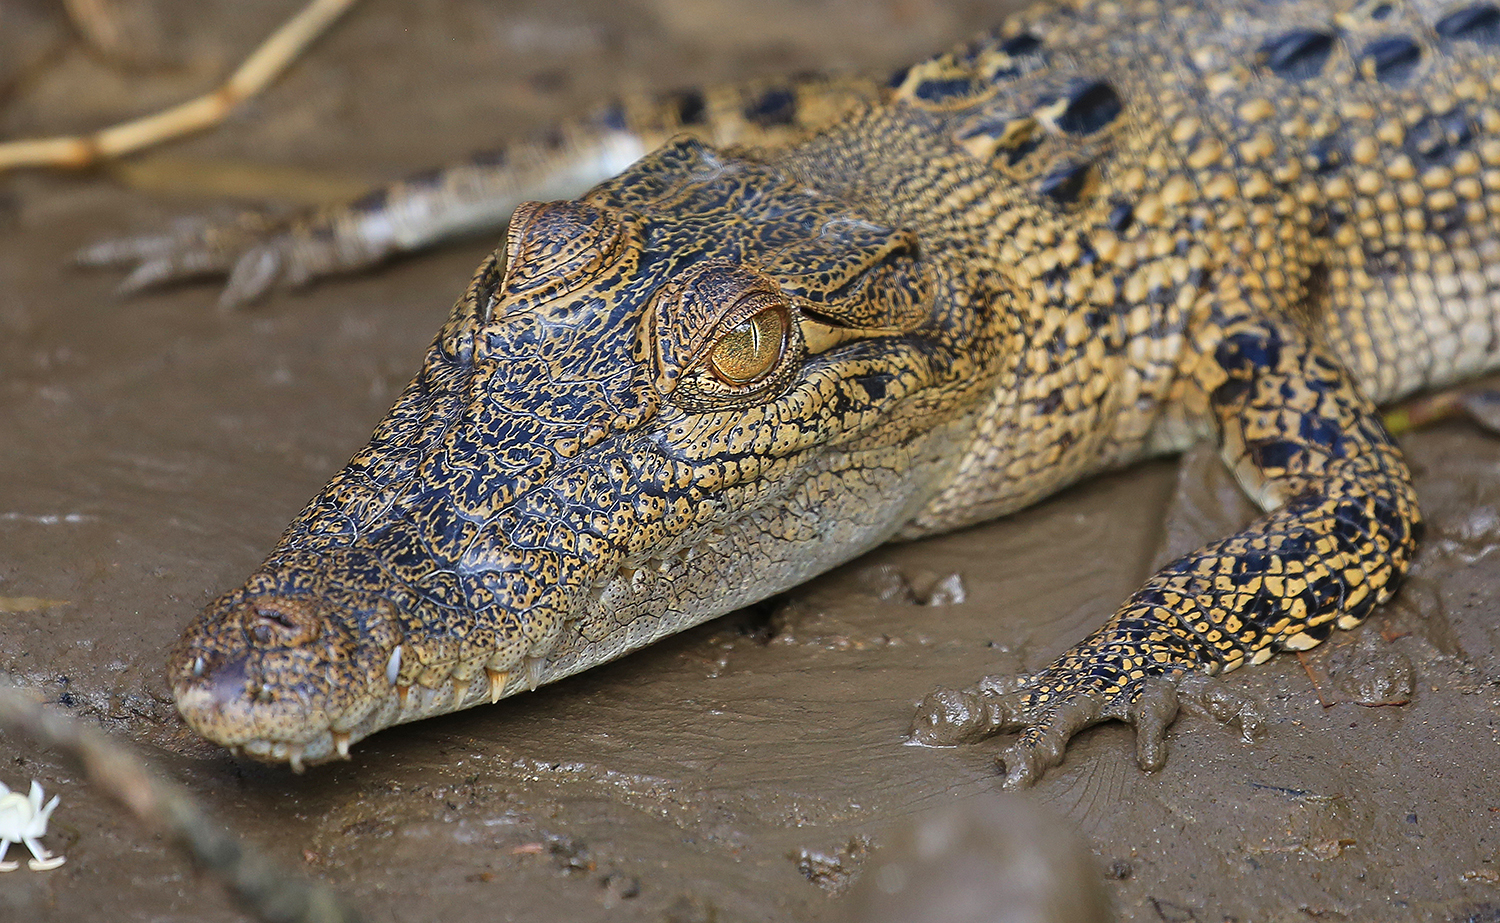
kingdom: Animalia
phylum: Chordata
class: Crocodylia
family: Crocodylidae
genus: Crocodylus
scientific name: Crocodylus porosus
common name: Saltwater crocodile
